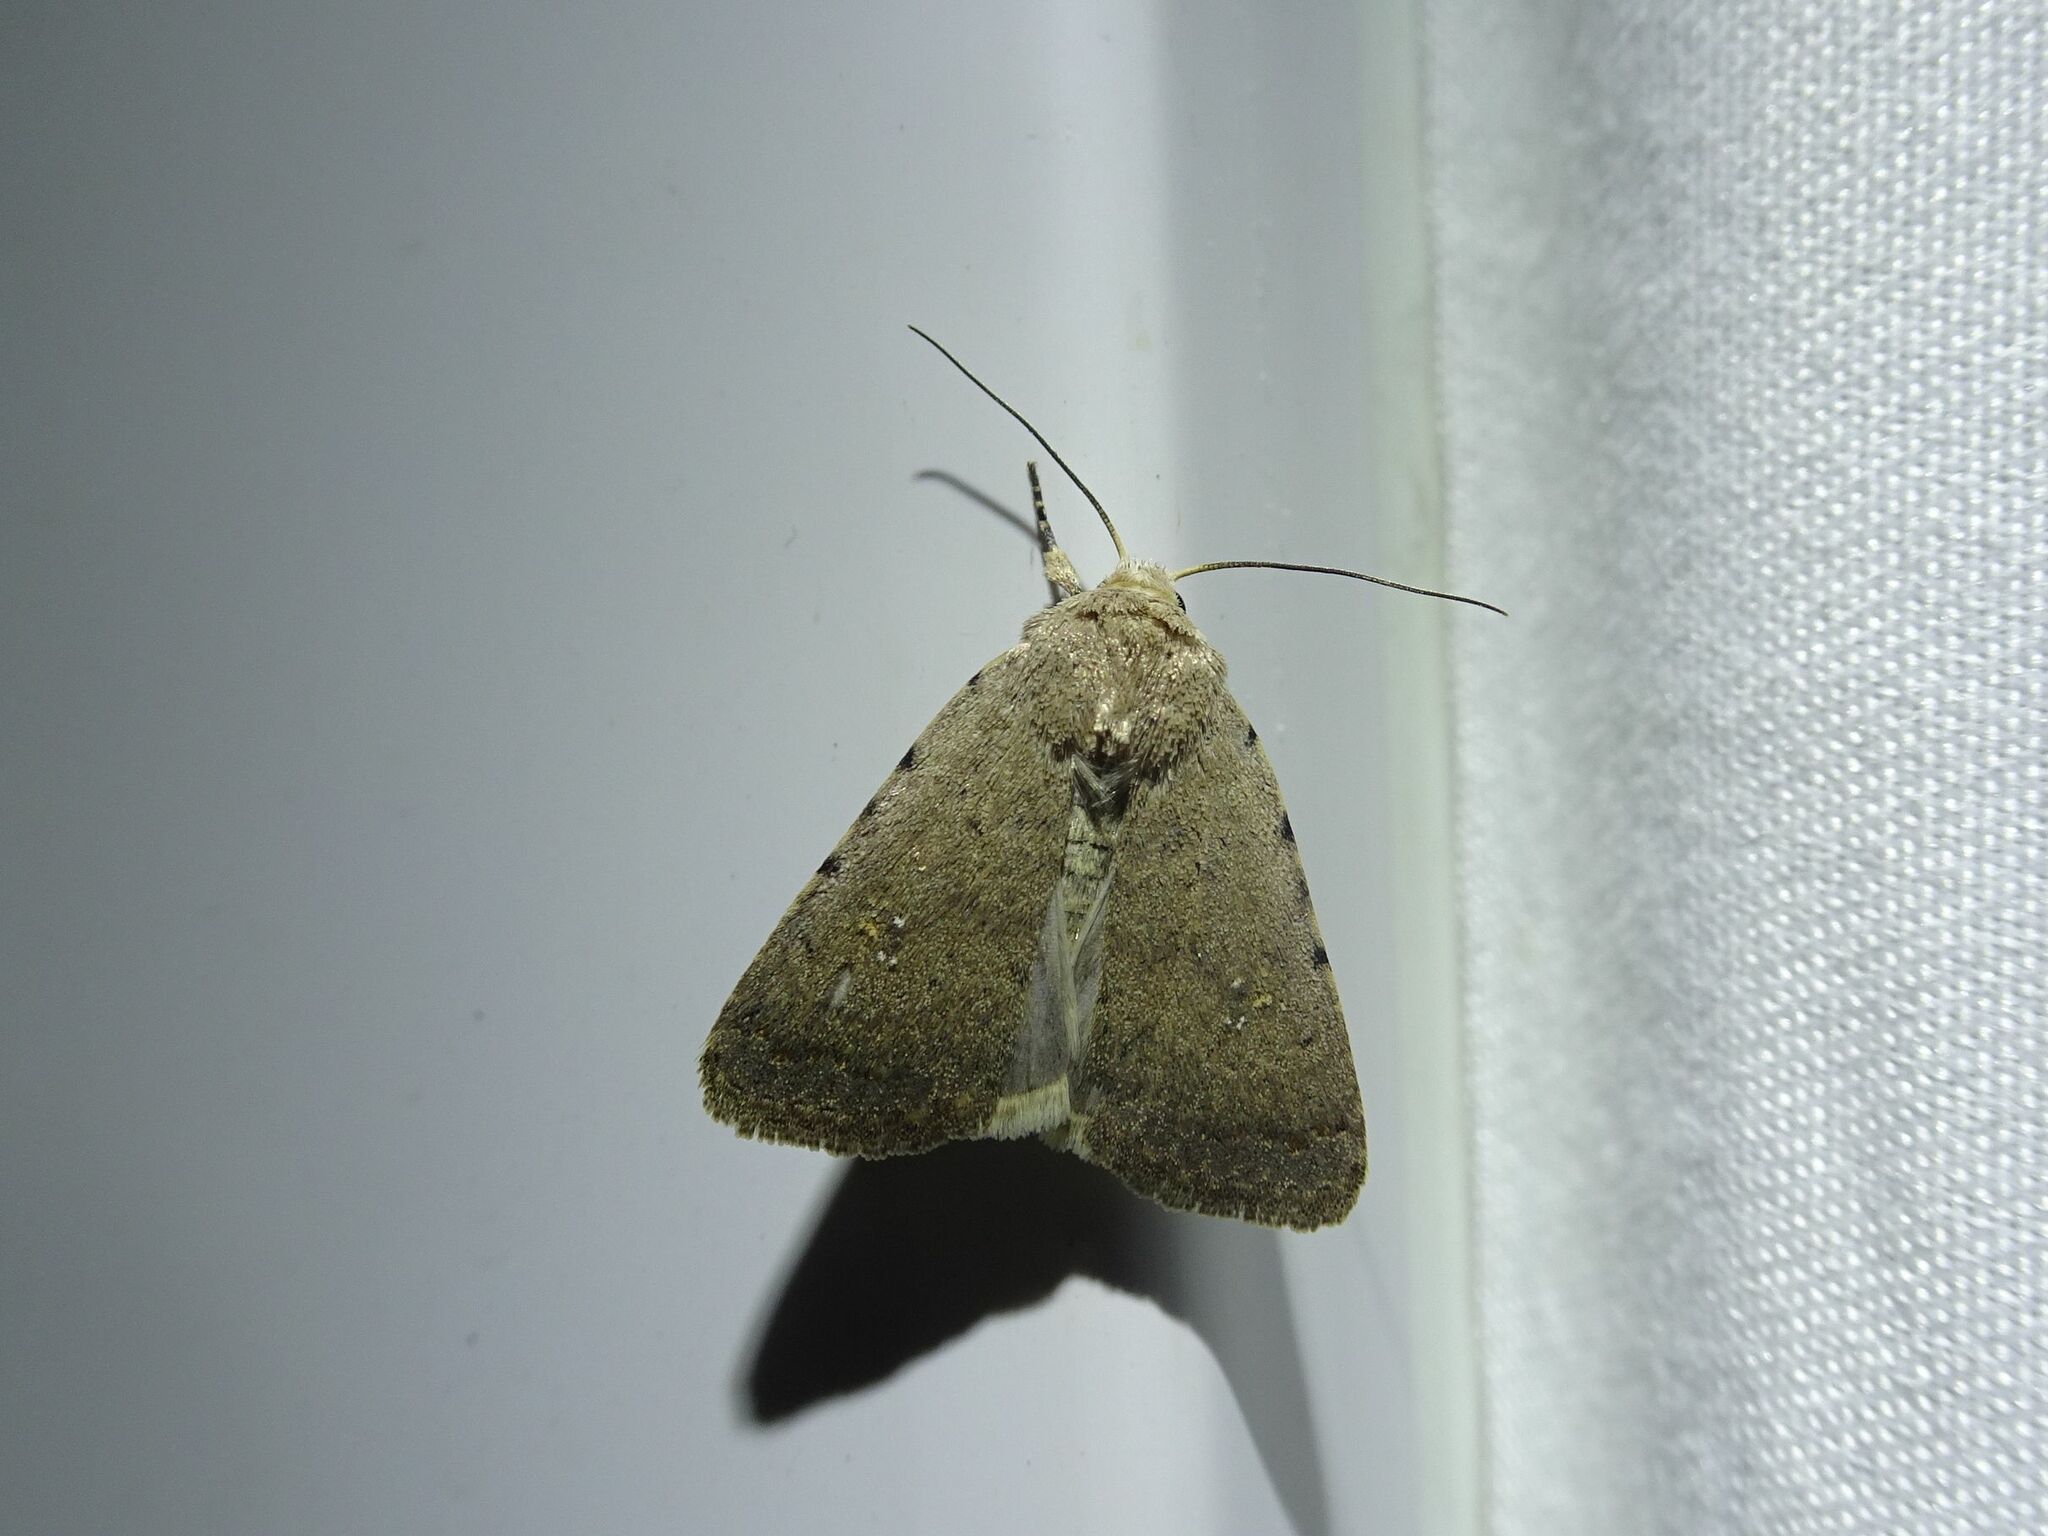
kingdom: Animalia
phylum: Arthropoda
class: Insecta
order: Lepidoptera
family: Noctuidae
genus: Caradrina
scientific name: Caradrina flavirena
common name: Lorimer's rustic
